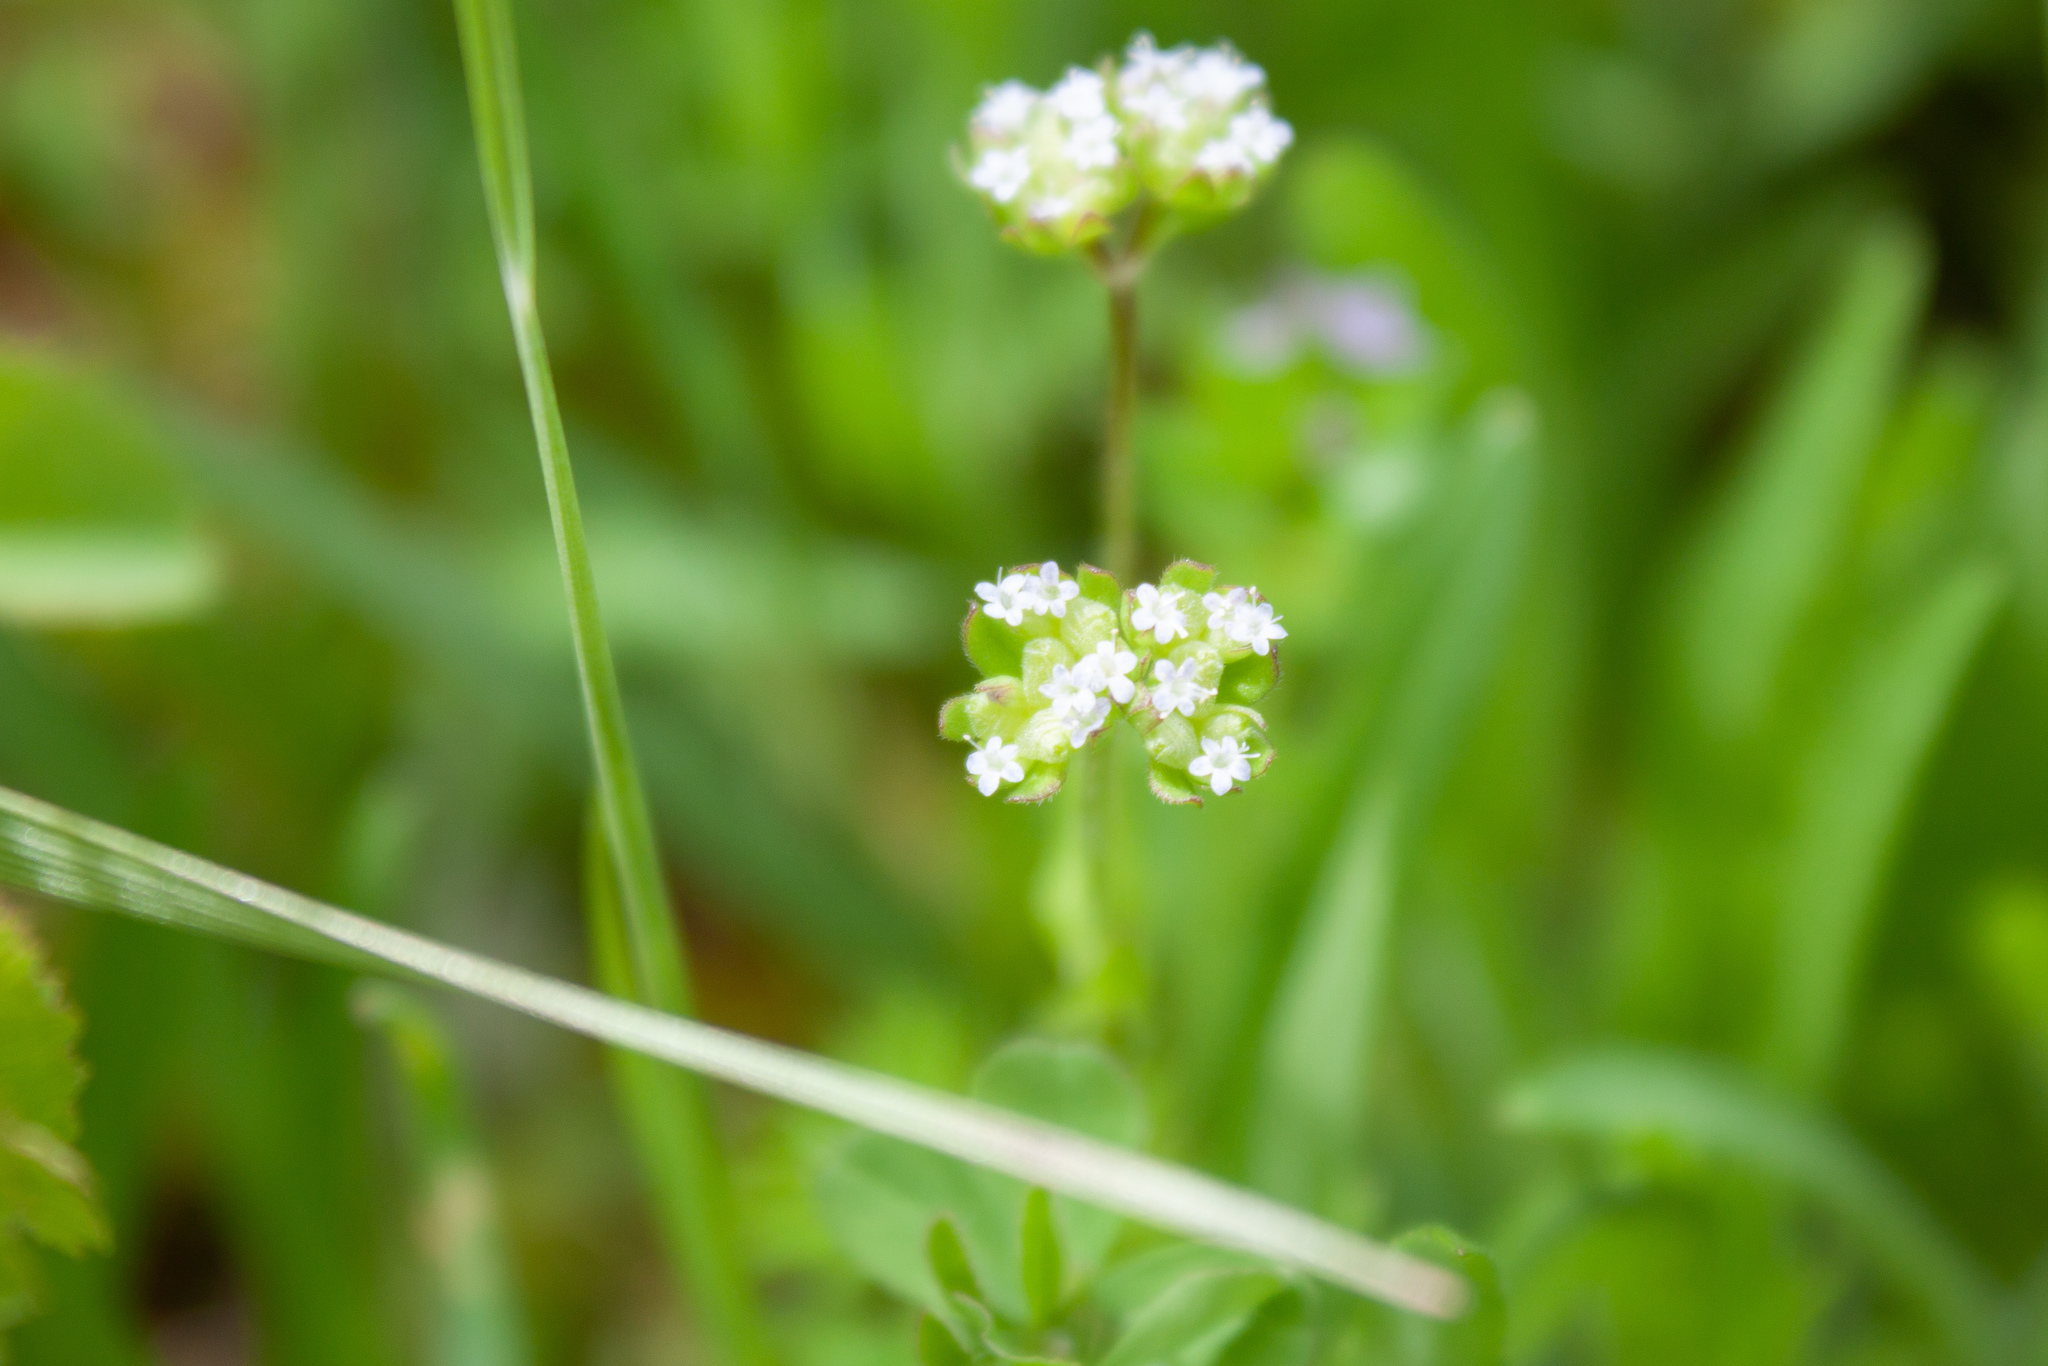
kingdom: Plantae
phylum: Tracheophyta
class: Magnoliopsida
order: Dipsacales
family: Caprifoliaceae
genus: Valerianella
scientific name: Valerianella locusta
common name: Common cornsalad
